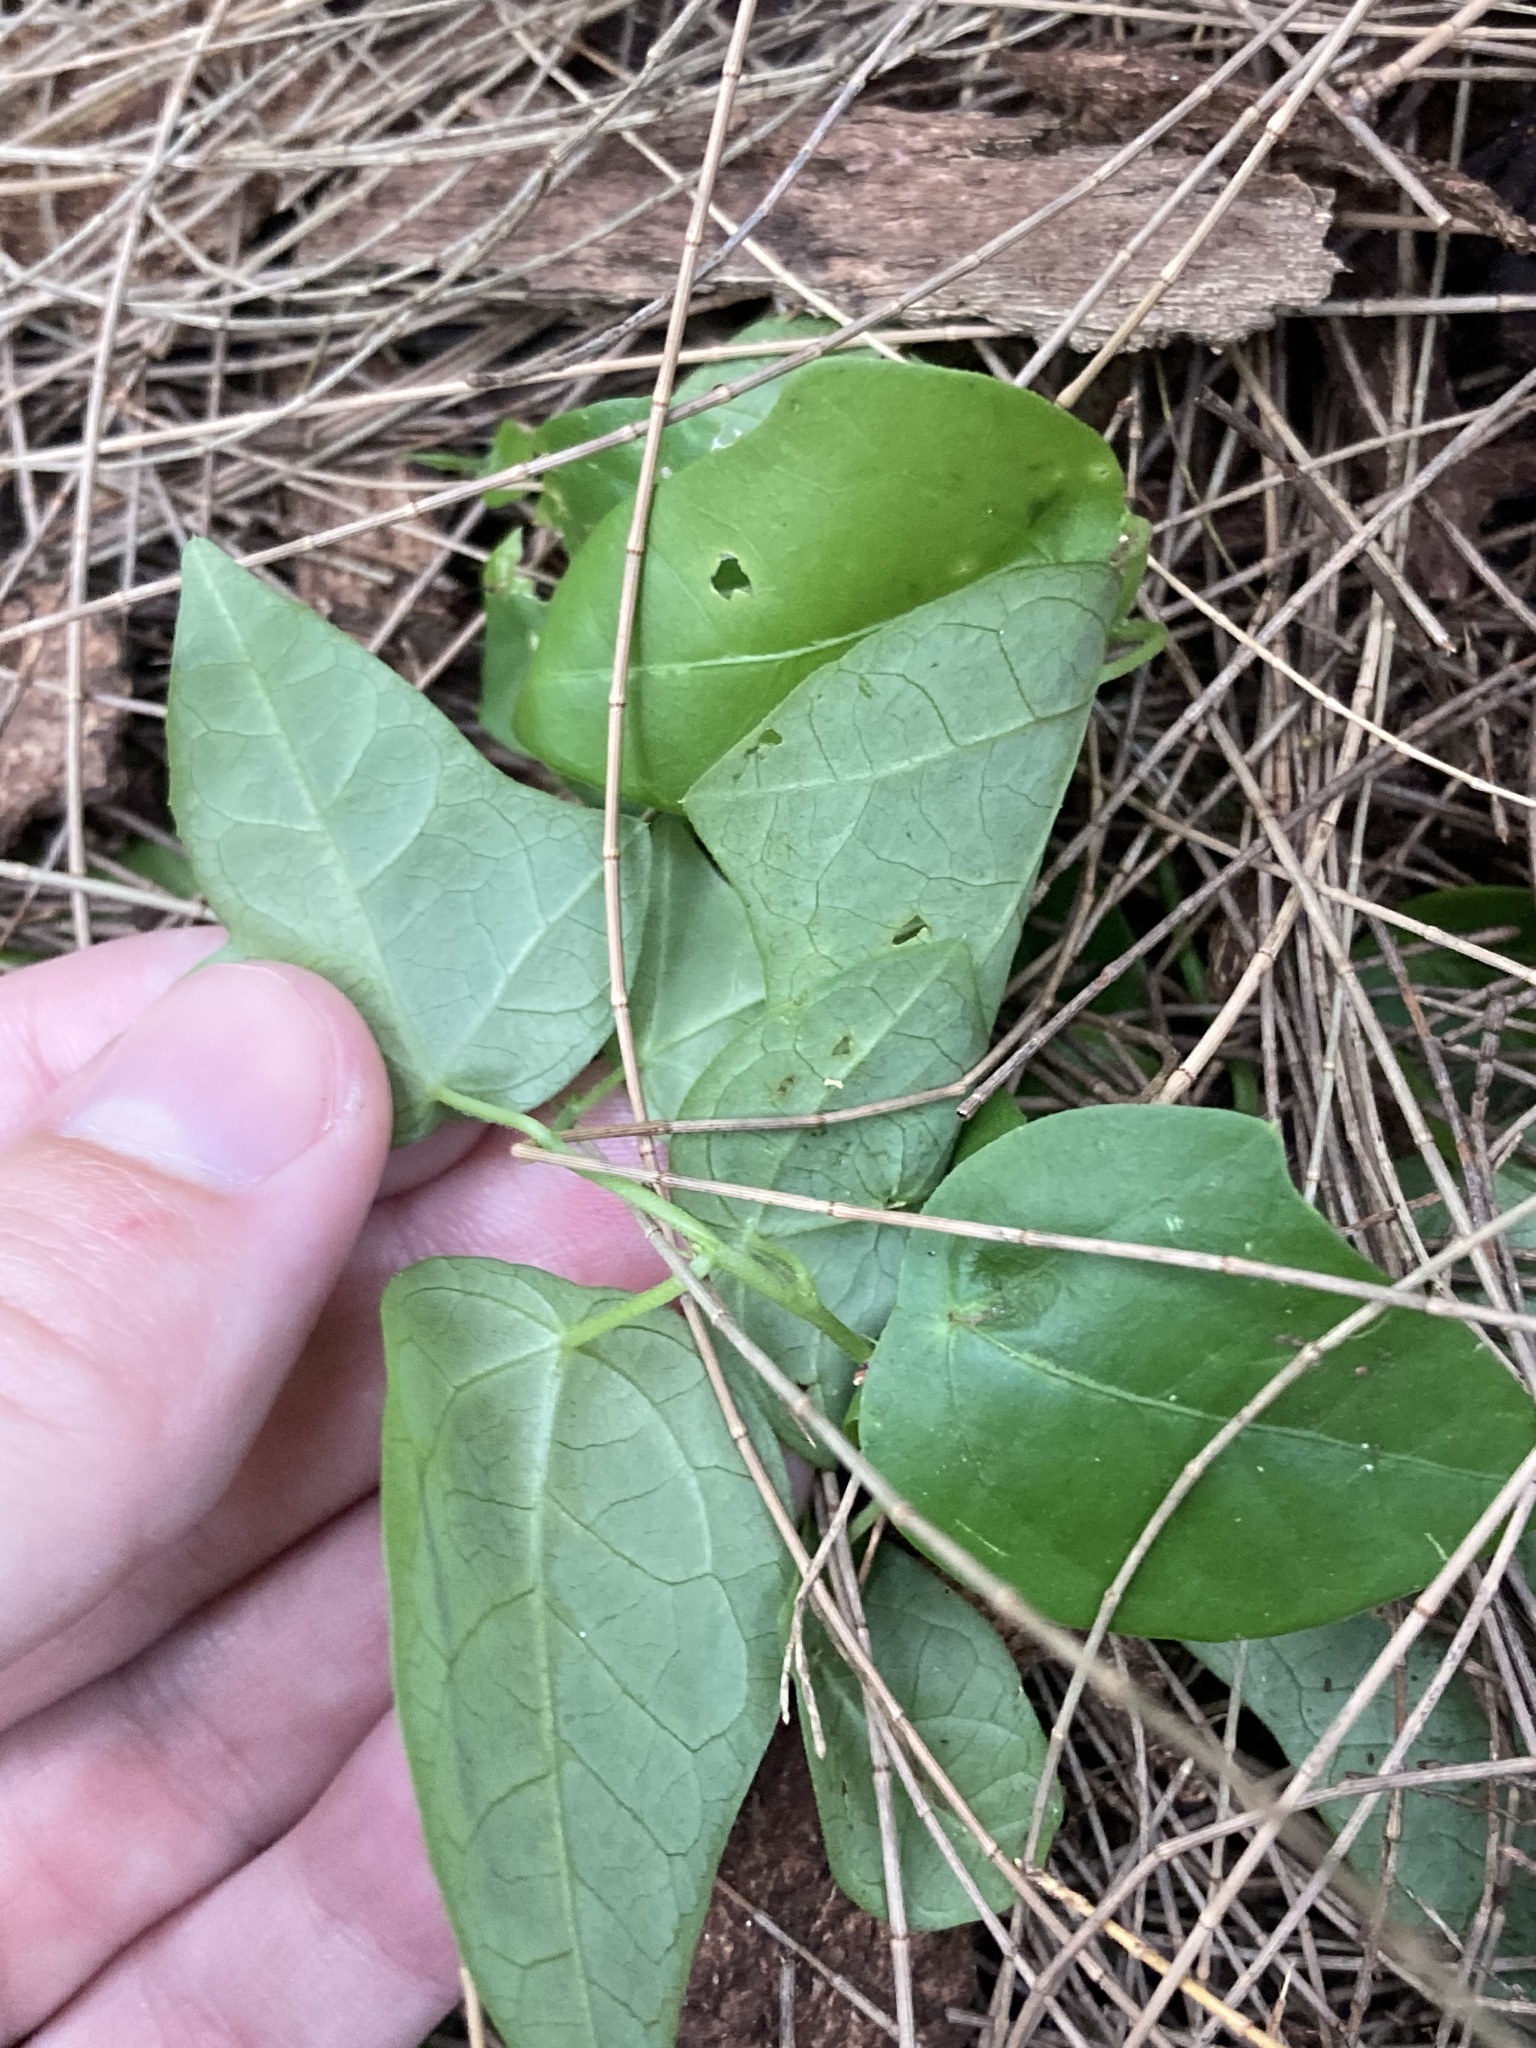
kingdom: Plantae
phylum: Tracheophyta
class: Magnoliopsida
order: Malpighiales
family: Passifloraceae
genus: Passiflora
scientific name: Passiflora pallida
